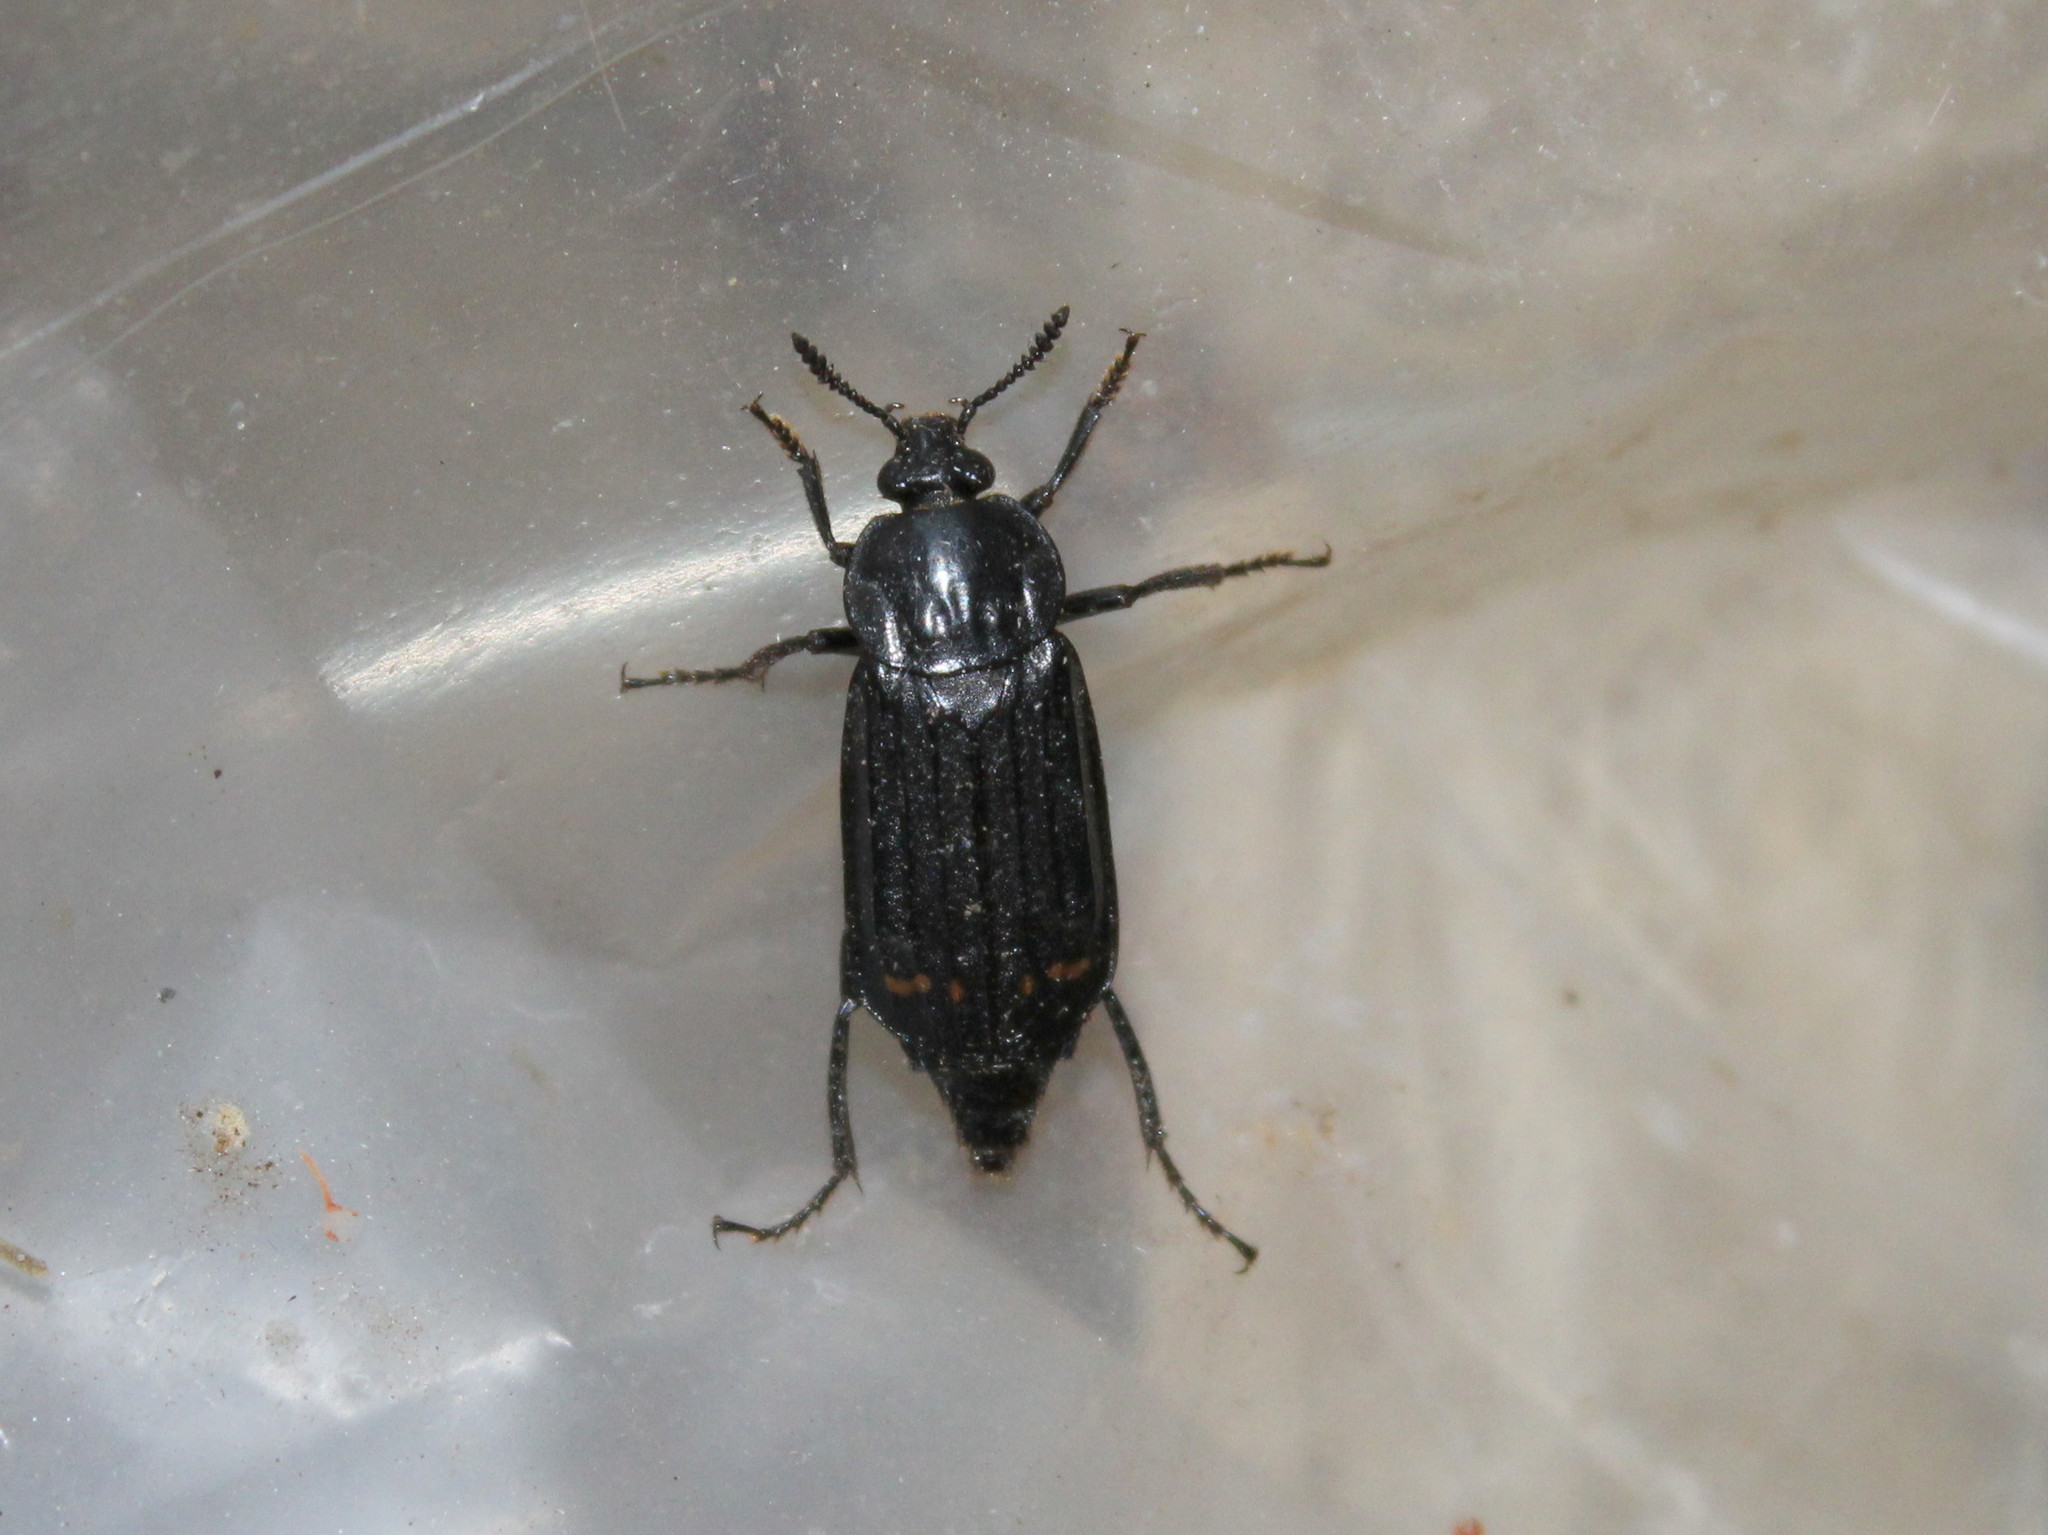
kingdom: Animalia
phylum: Arthropoda
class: Insecta
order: Coleoptera
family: Staphylinidae
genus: Necrodes
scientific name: Necrodes surinamensis
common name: Red-lined carrion beetle
